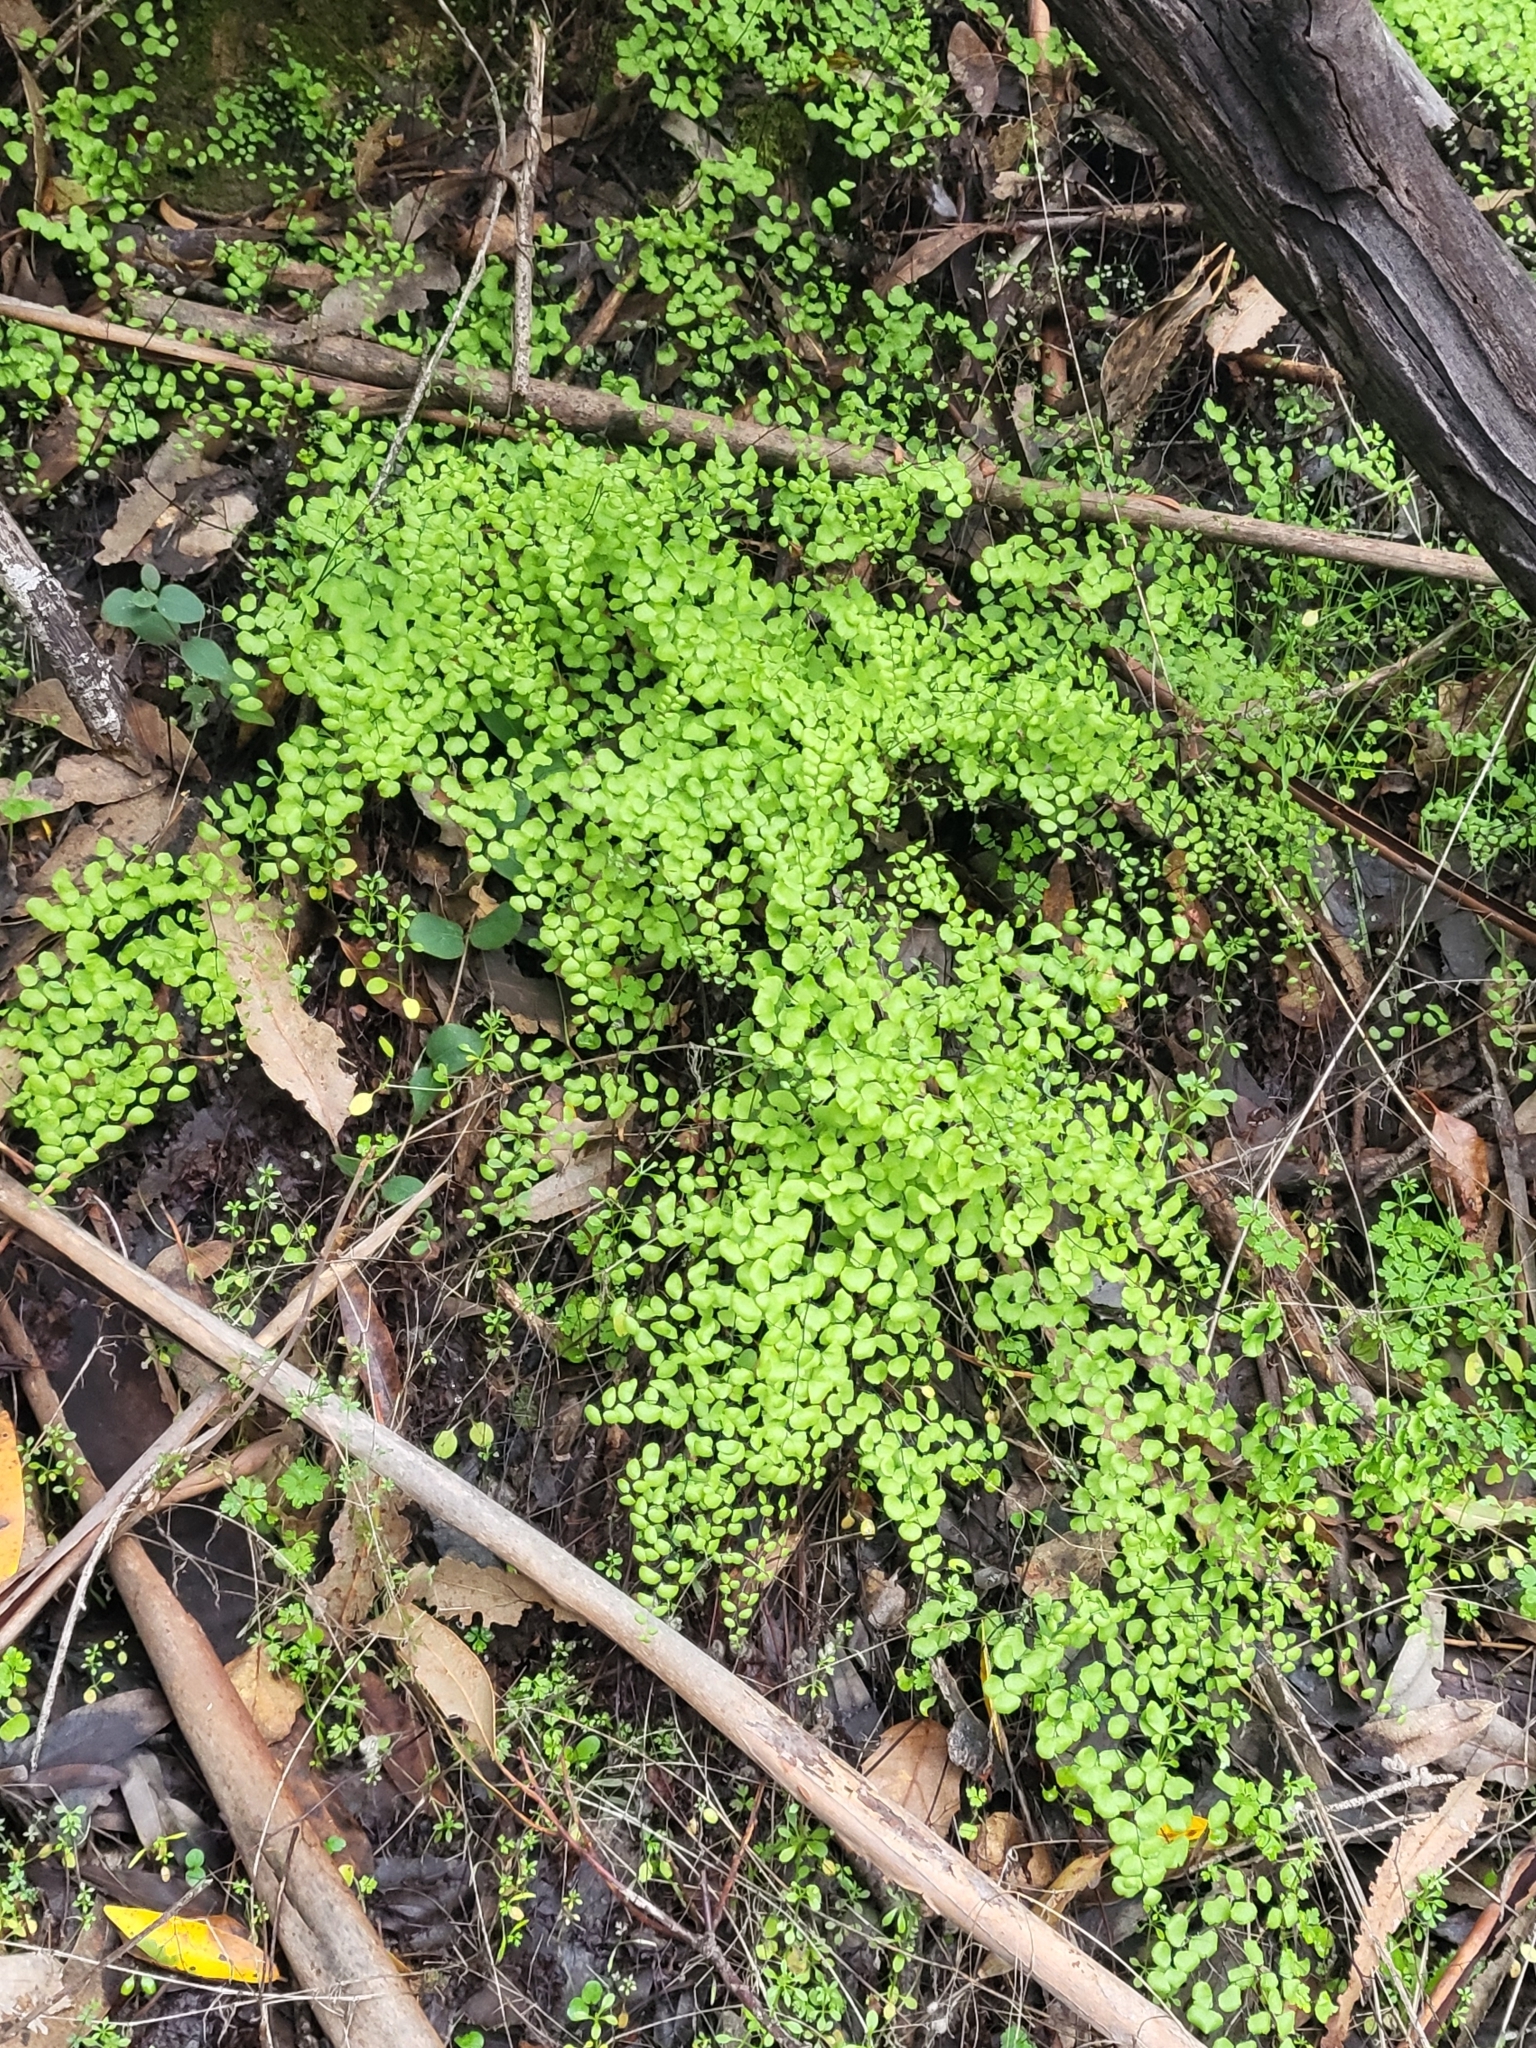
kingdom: Plantae
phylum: Tracheophyta
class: Polypodiopsida
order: Polypodiales
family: Pteridaceae
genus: Adiantum
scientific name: Adiantum jordanii
